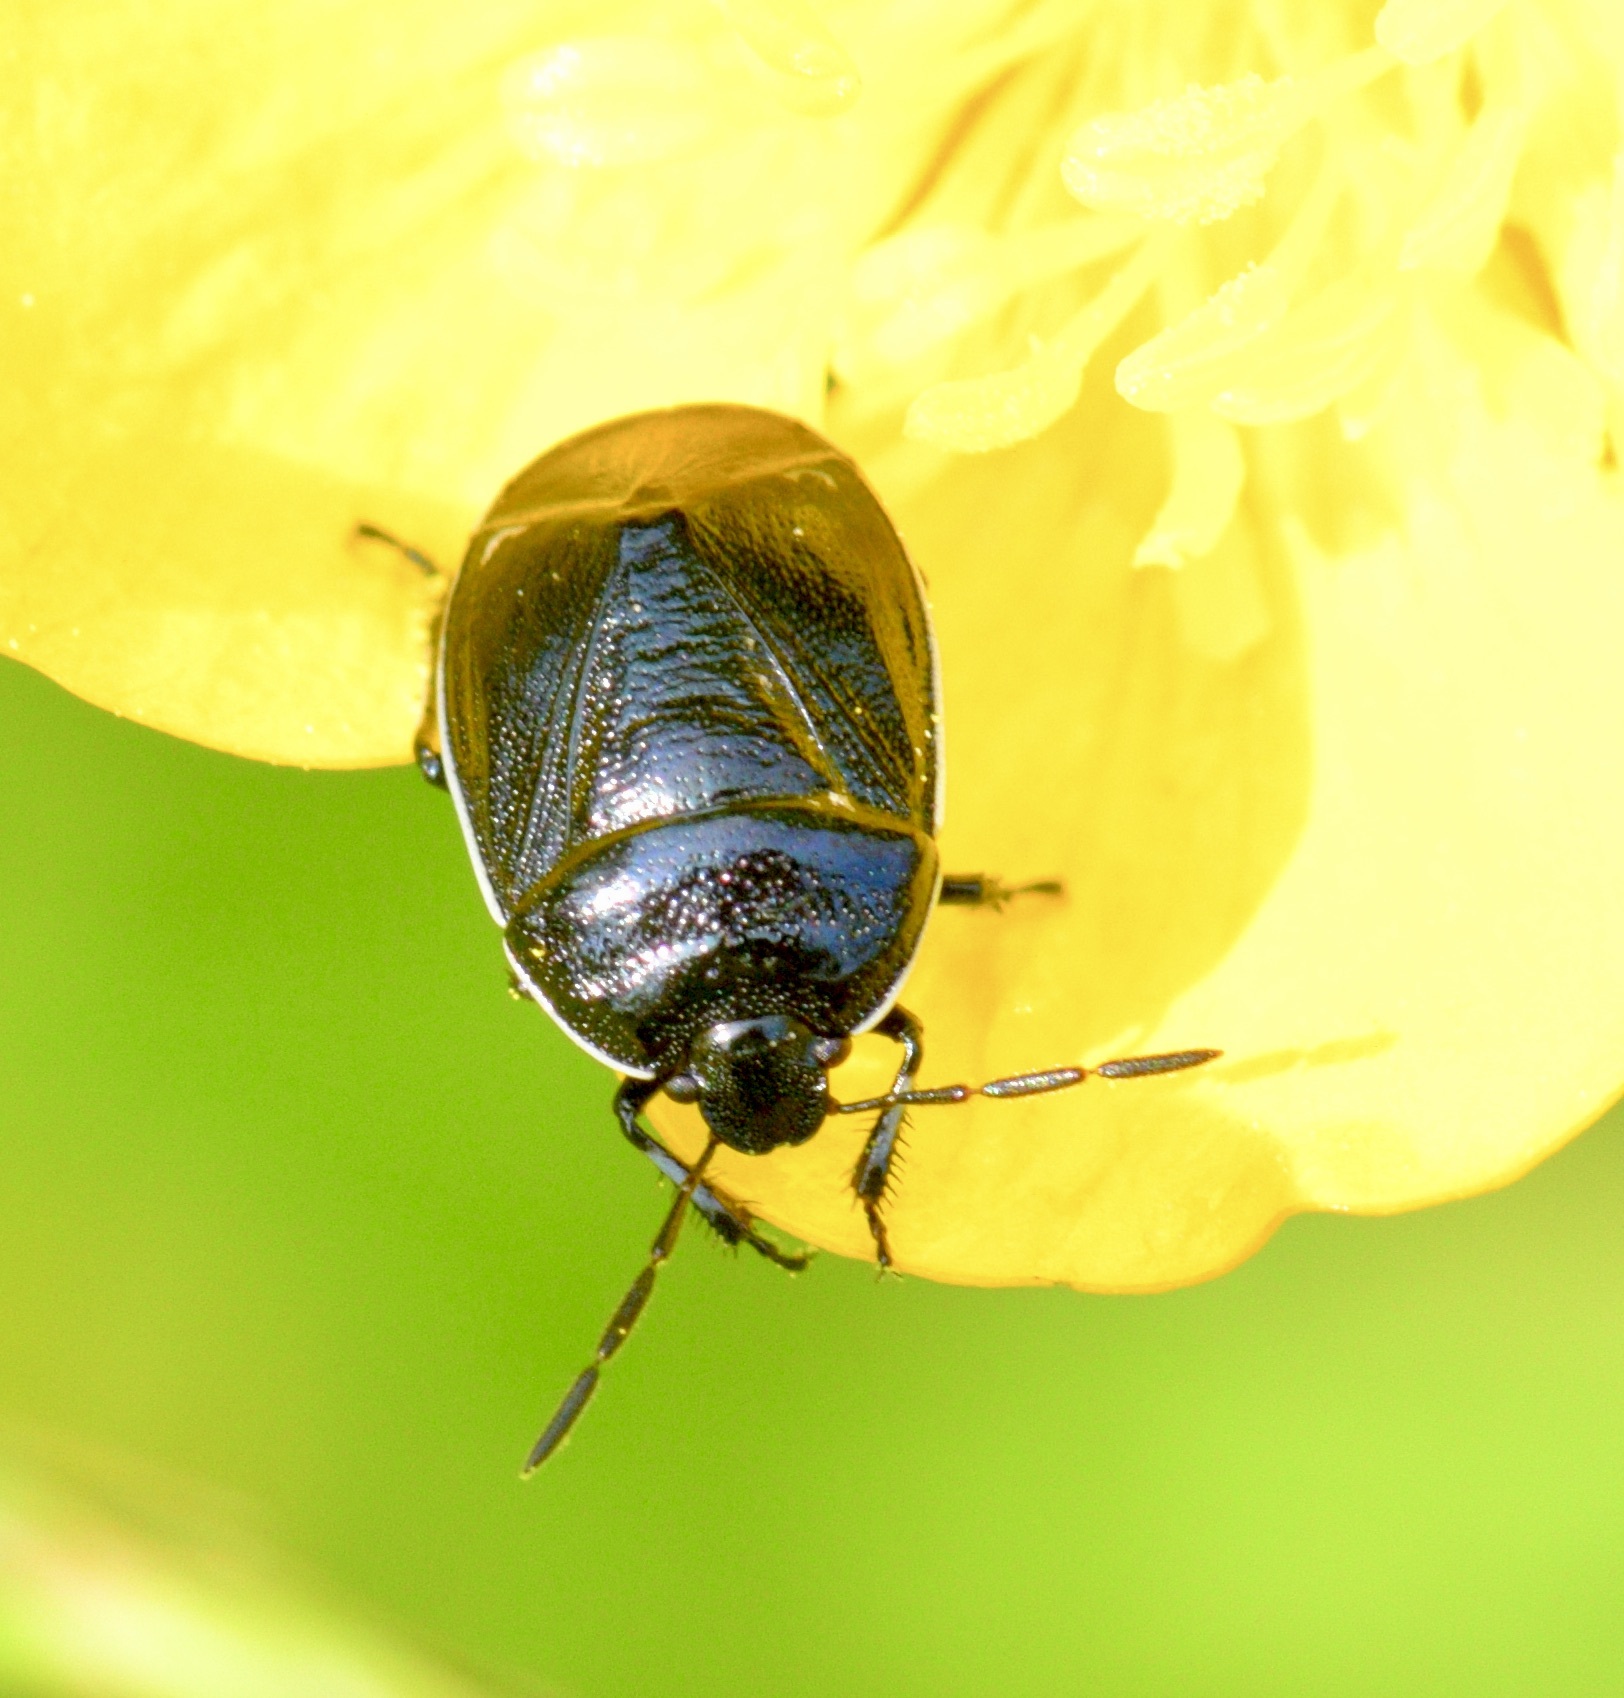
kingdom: Animalia
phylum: Arthropoda
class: Insecta
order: Hemiptera
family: Cydnidae
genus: Sehirus
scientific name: Sehirus cinctus
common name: White-margined burrower bug
